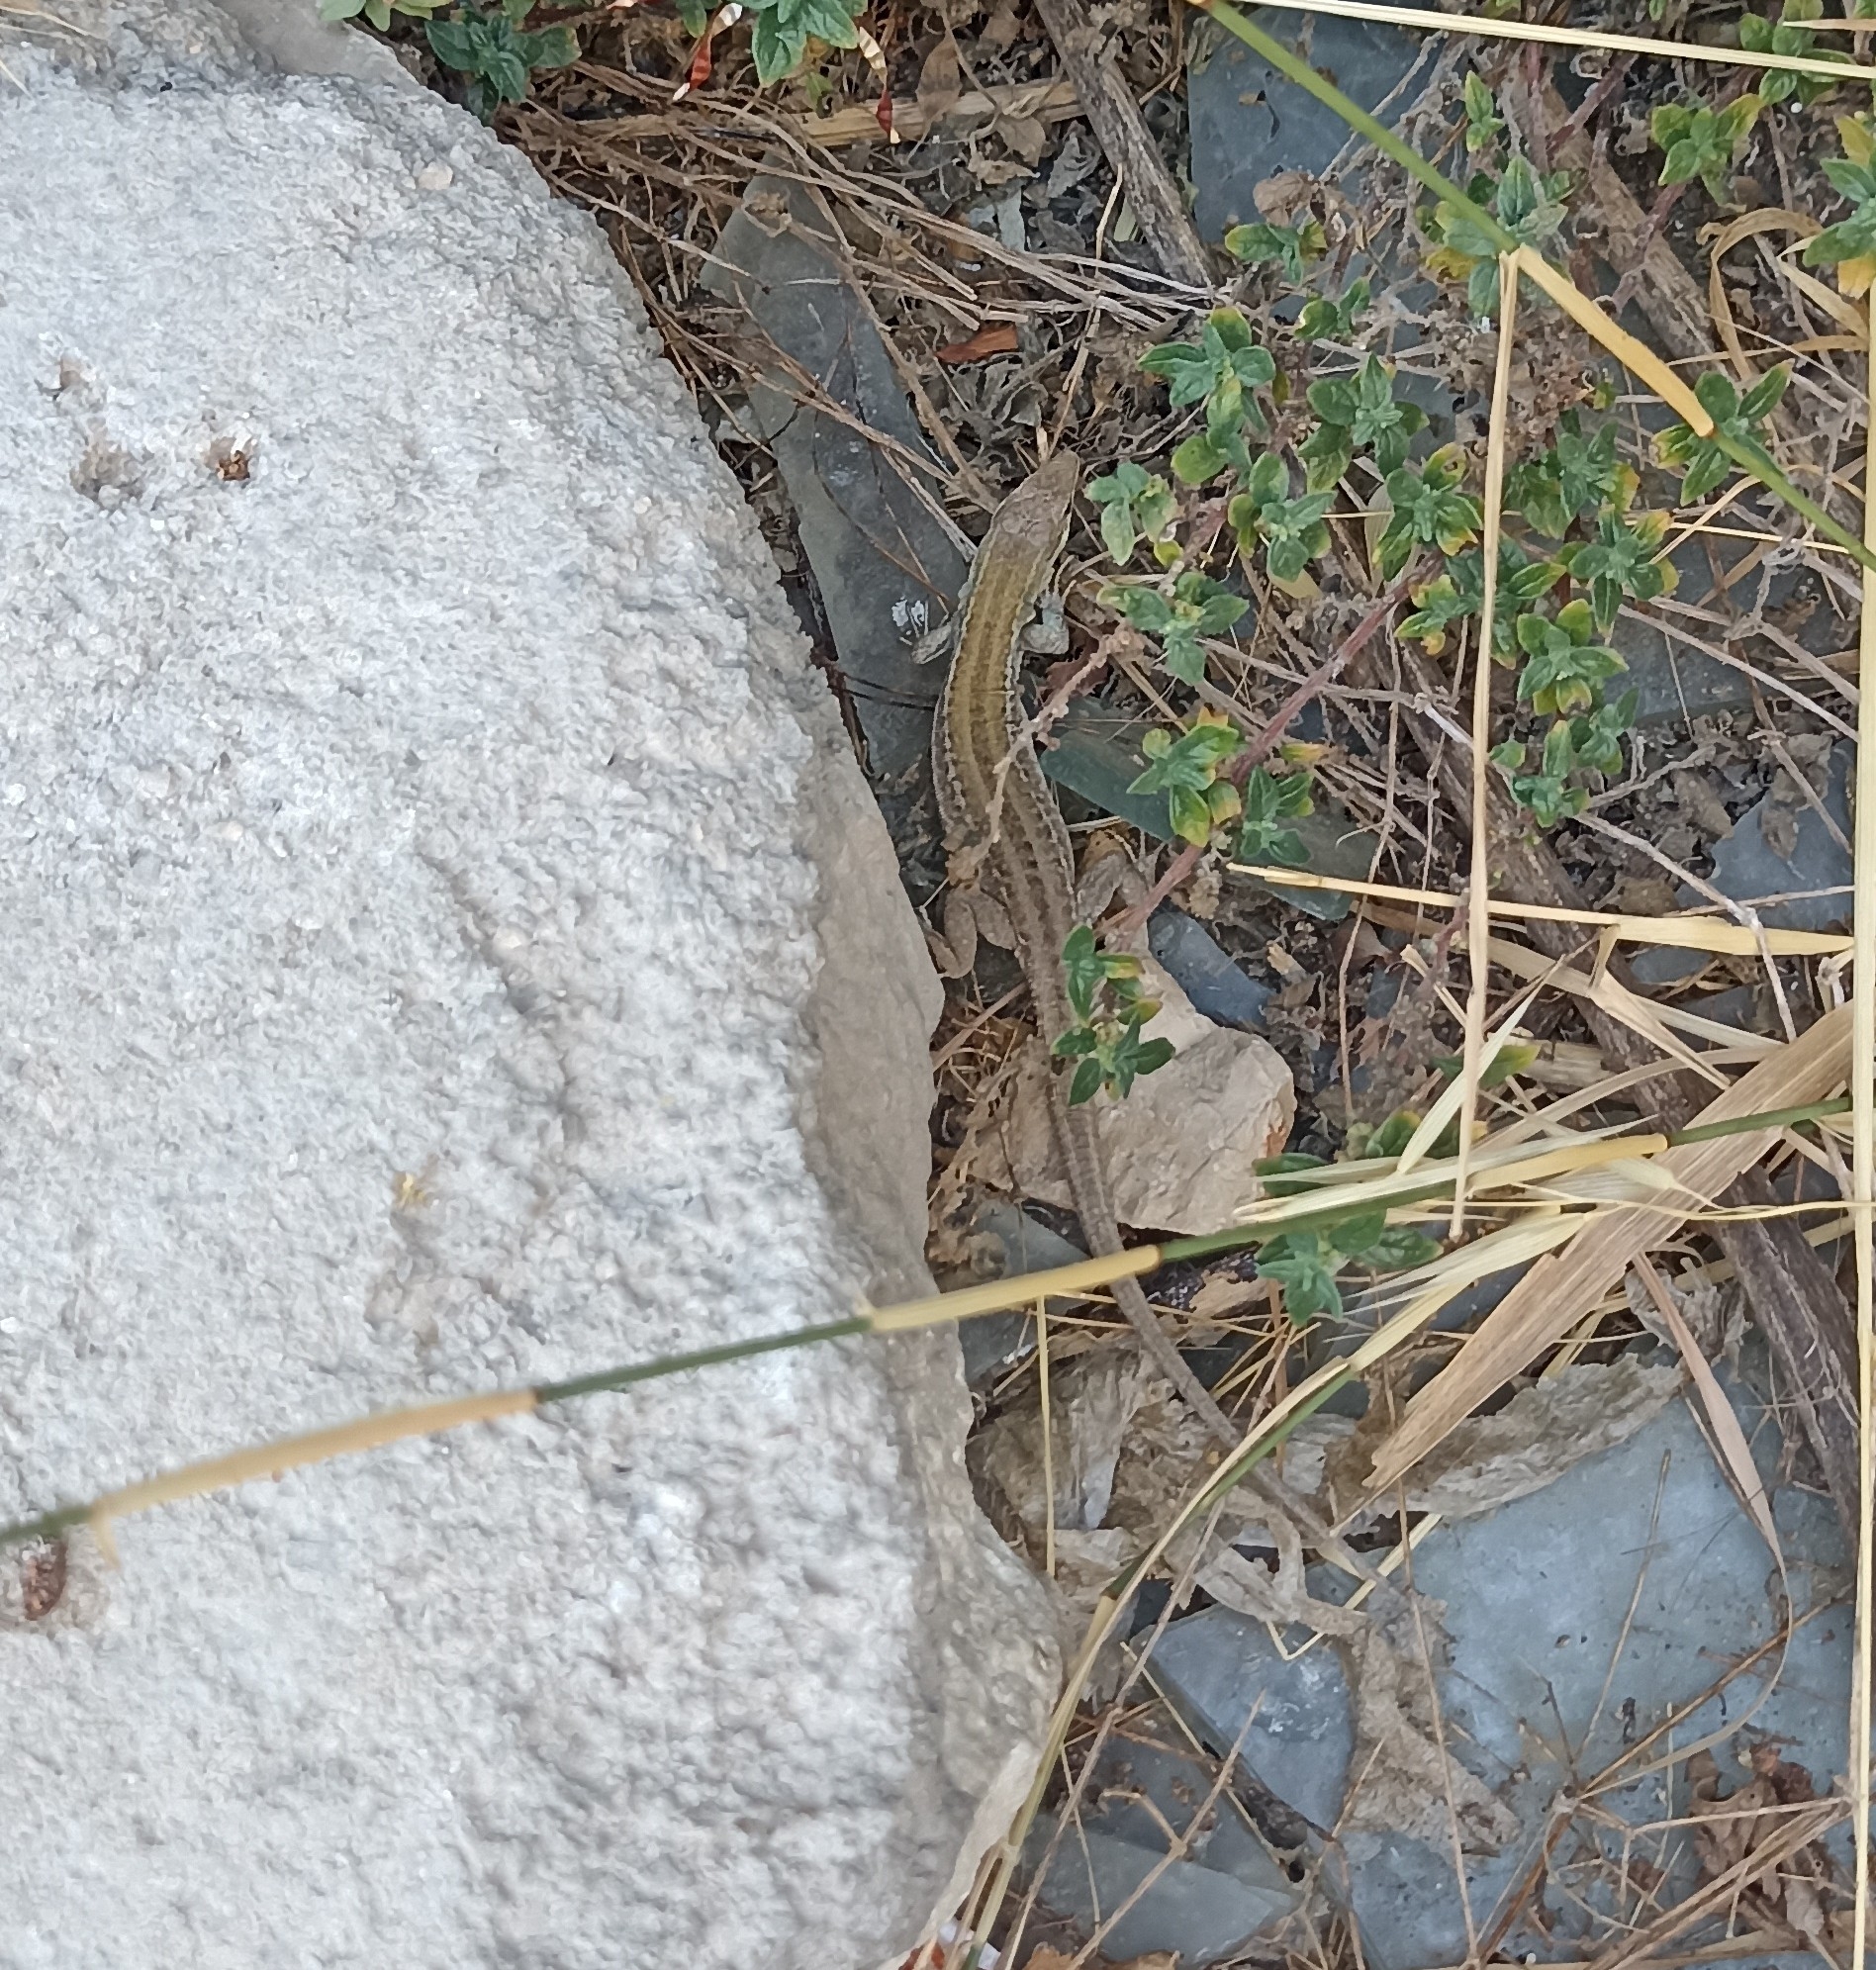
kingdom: Animalia
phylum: Chordata
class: Squamata
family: Lacertidae
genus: Podarcis
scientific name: Podarcis siculus
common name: Italian wall lizard
